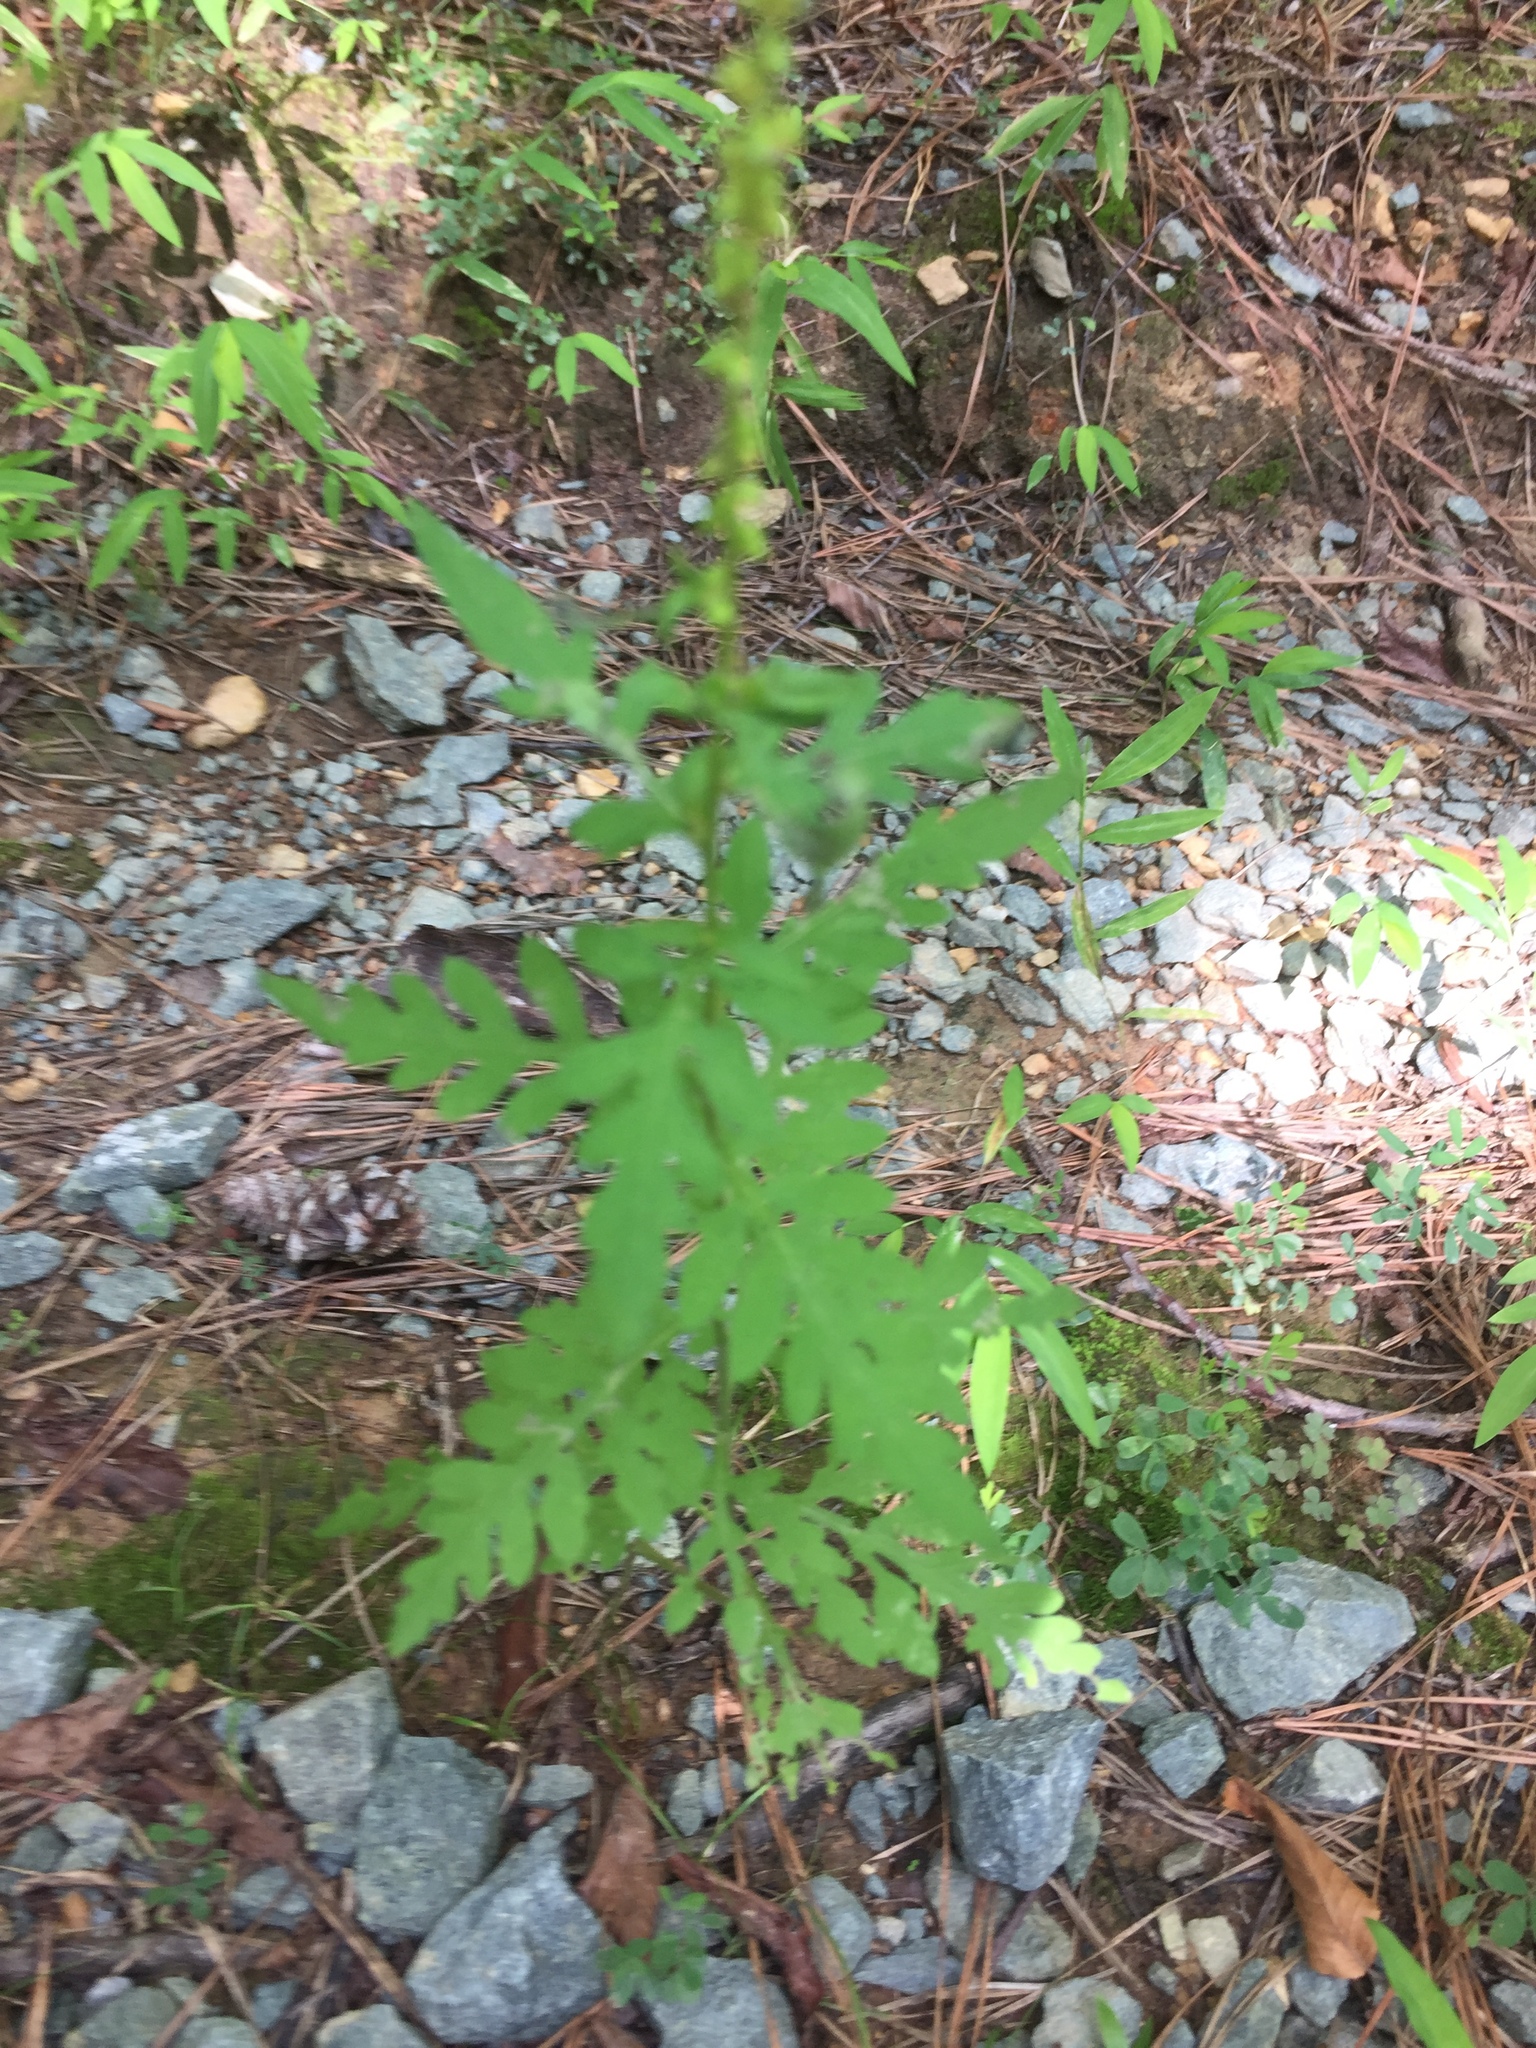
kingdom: Plantae
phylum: Tracheophyta
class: Magnoliopsida
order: Asterales
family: Asteraceae
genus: Ambrosia
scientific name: Ambrosia artemisiifolia
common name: Annual ragweed
